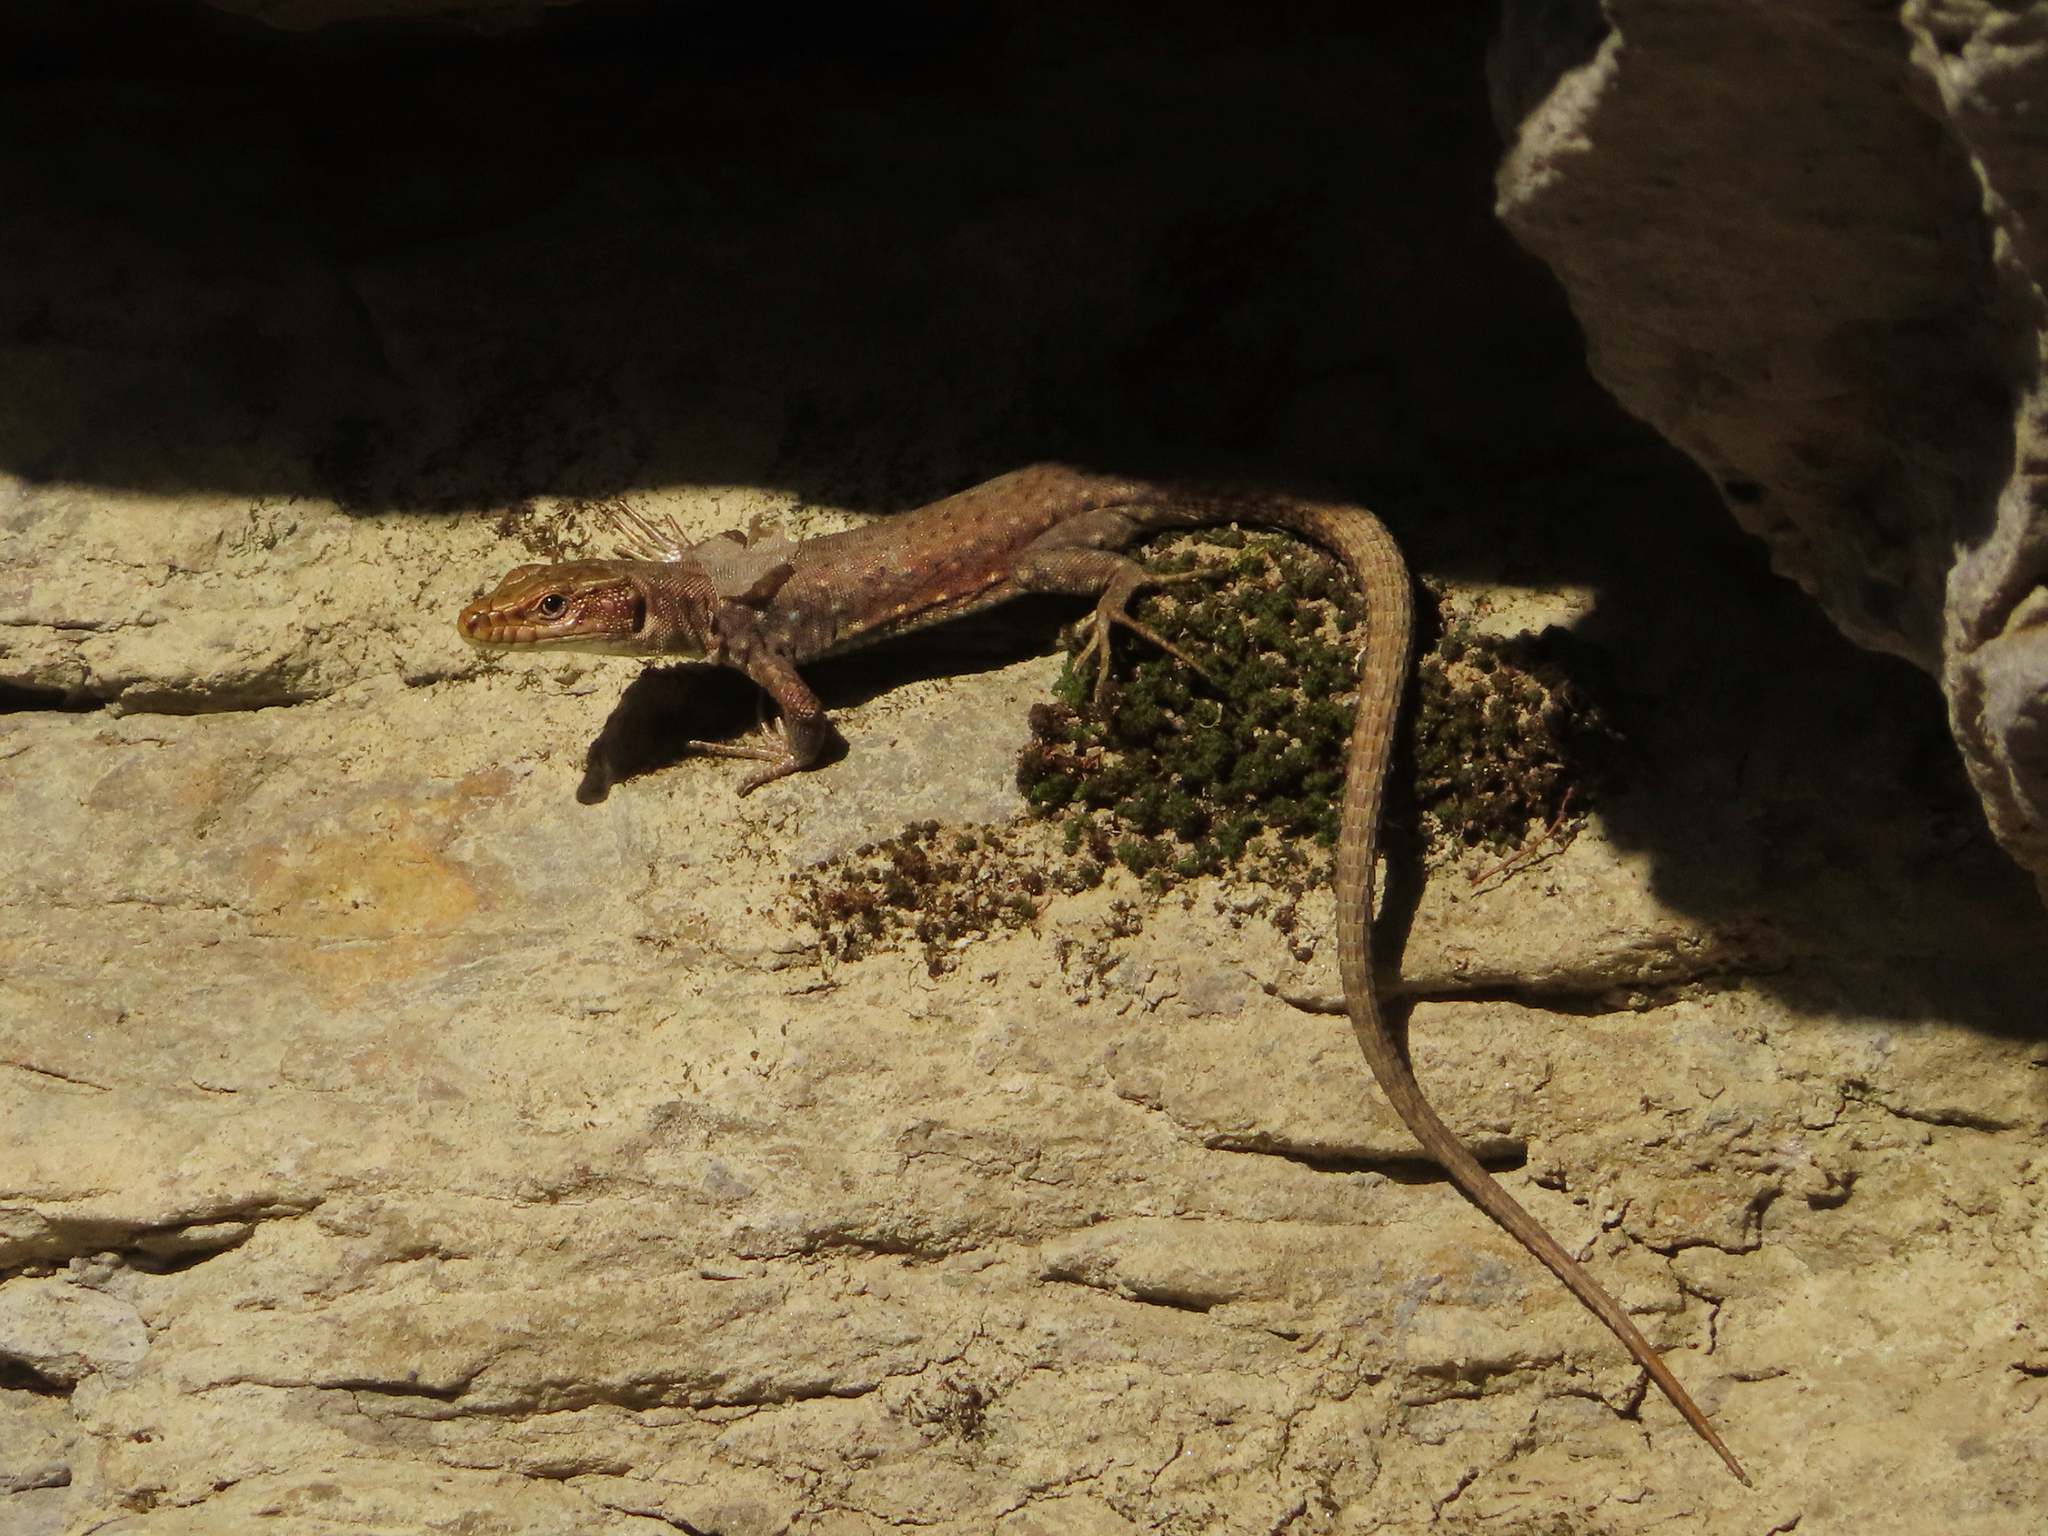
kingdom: Animalia
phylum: Chordata
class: Squamata
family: Lacertidae
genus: Darevskia
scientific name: Darevskia bithynica
